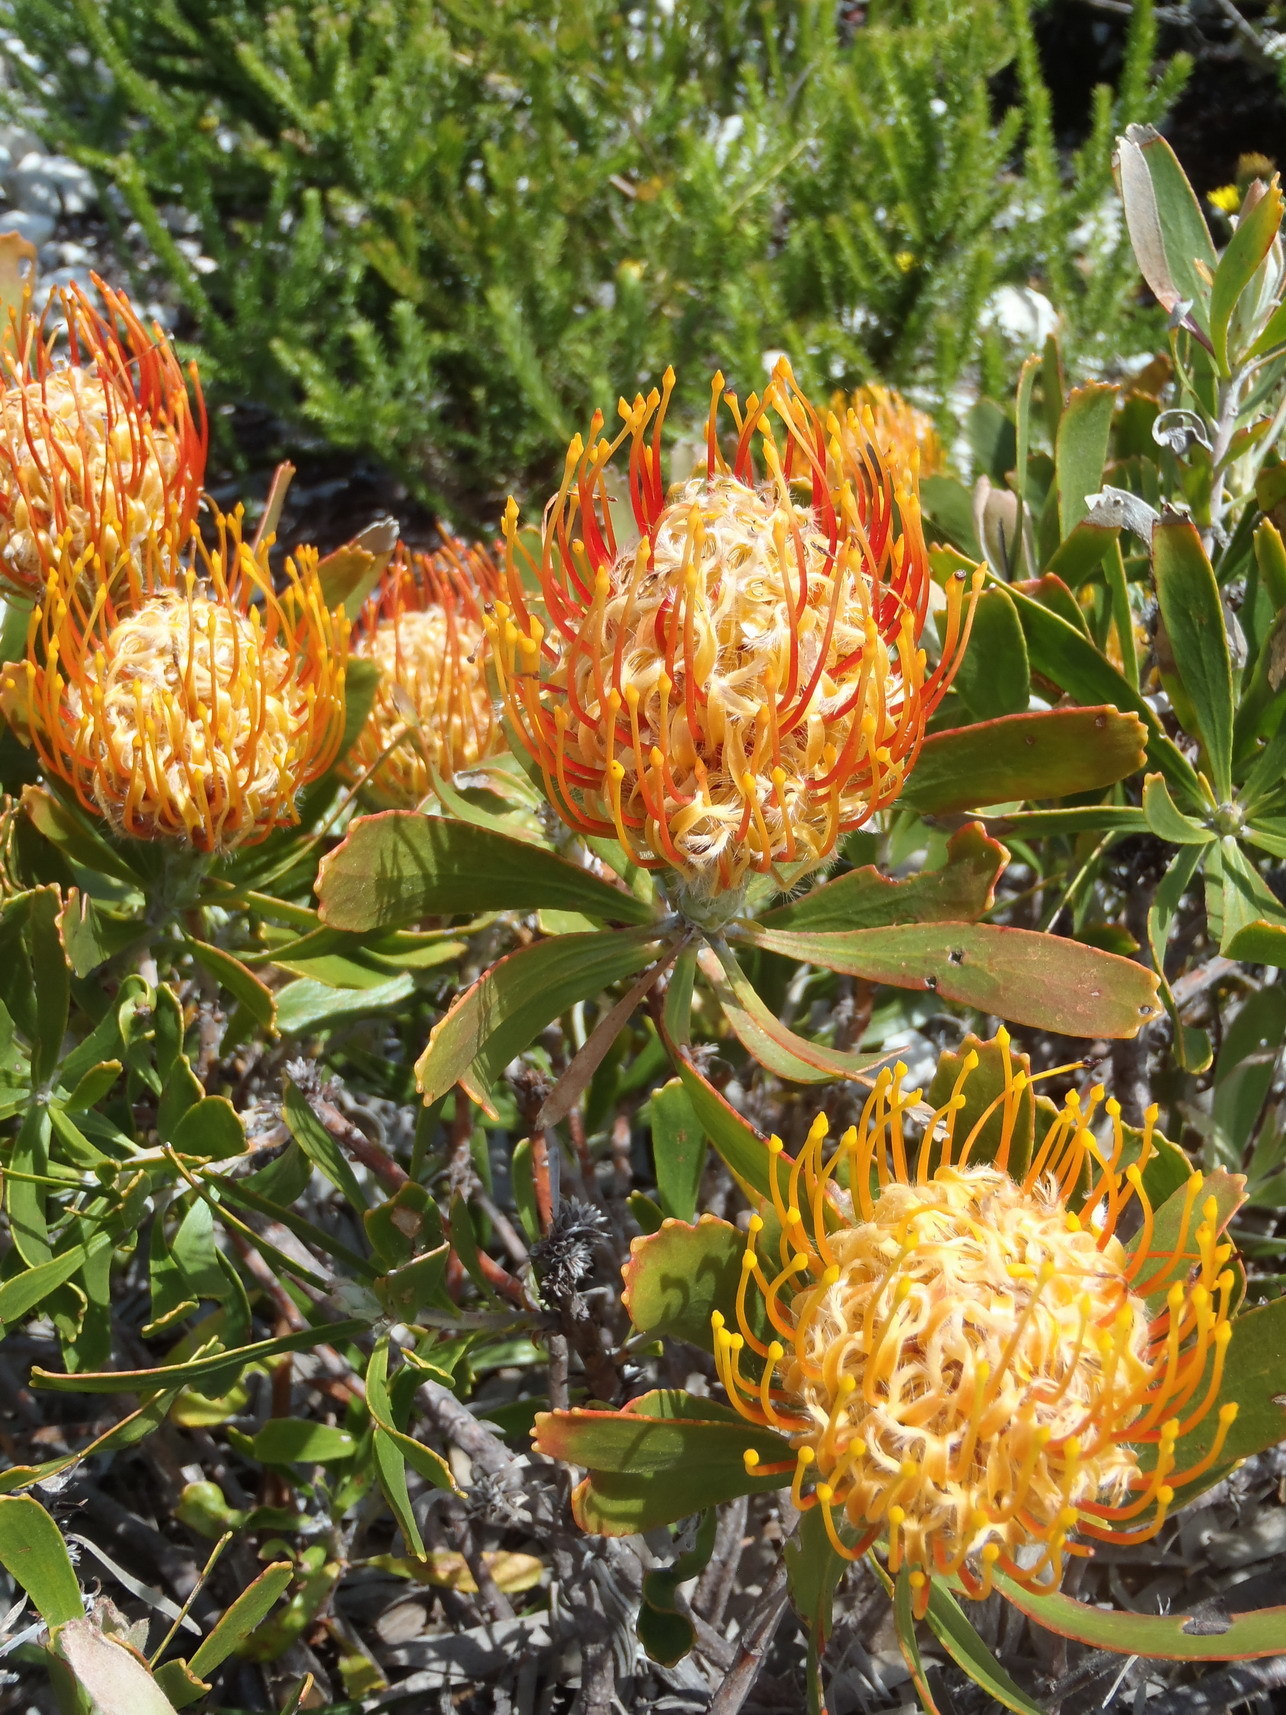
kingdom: Plantae
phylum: Tracheophyta
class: Magnoliopsida
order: Proteales
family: Proteaceae
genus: Leucospermum
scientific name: Leucospermum cuneiforme
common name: Common pincushion
